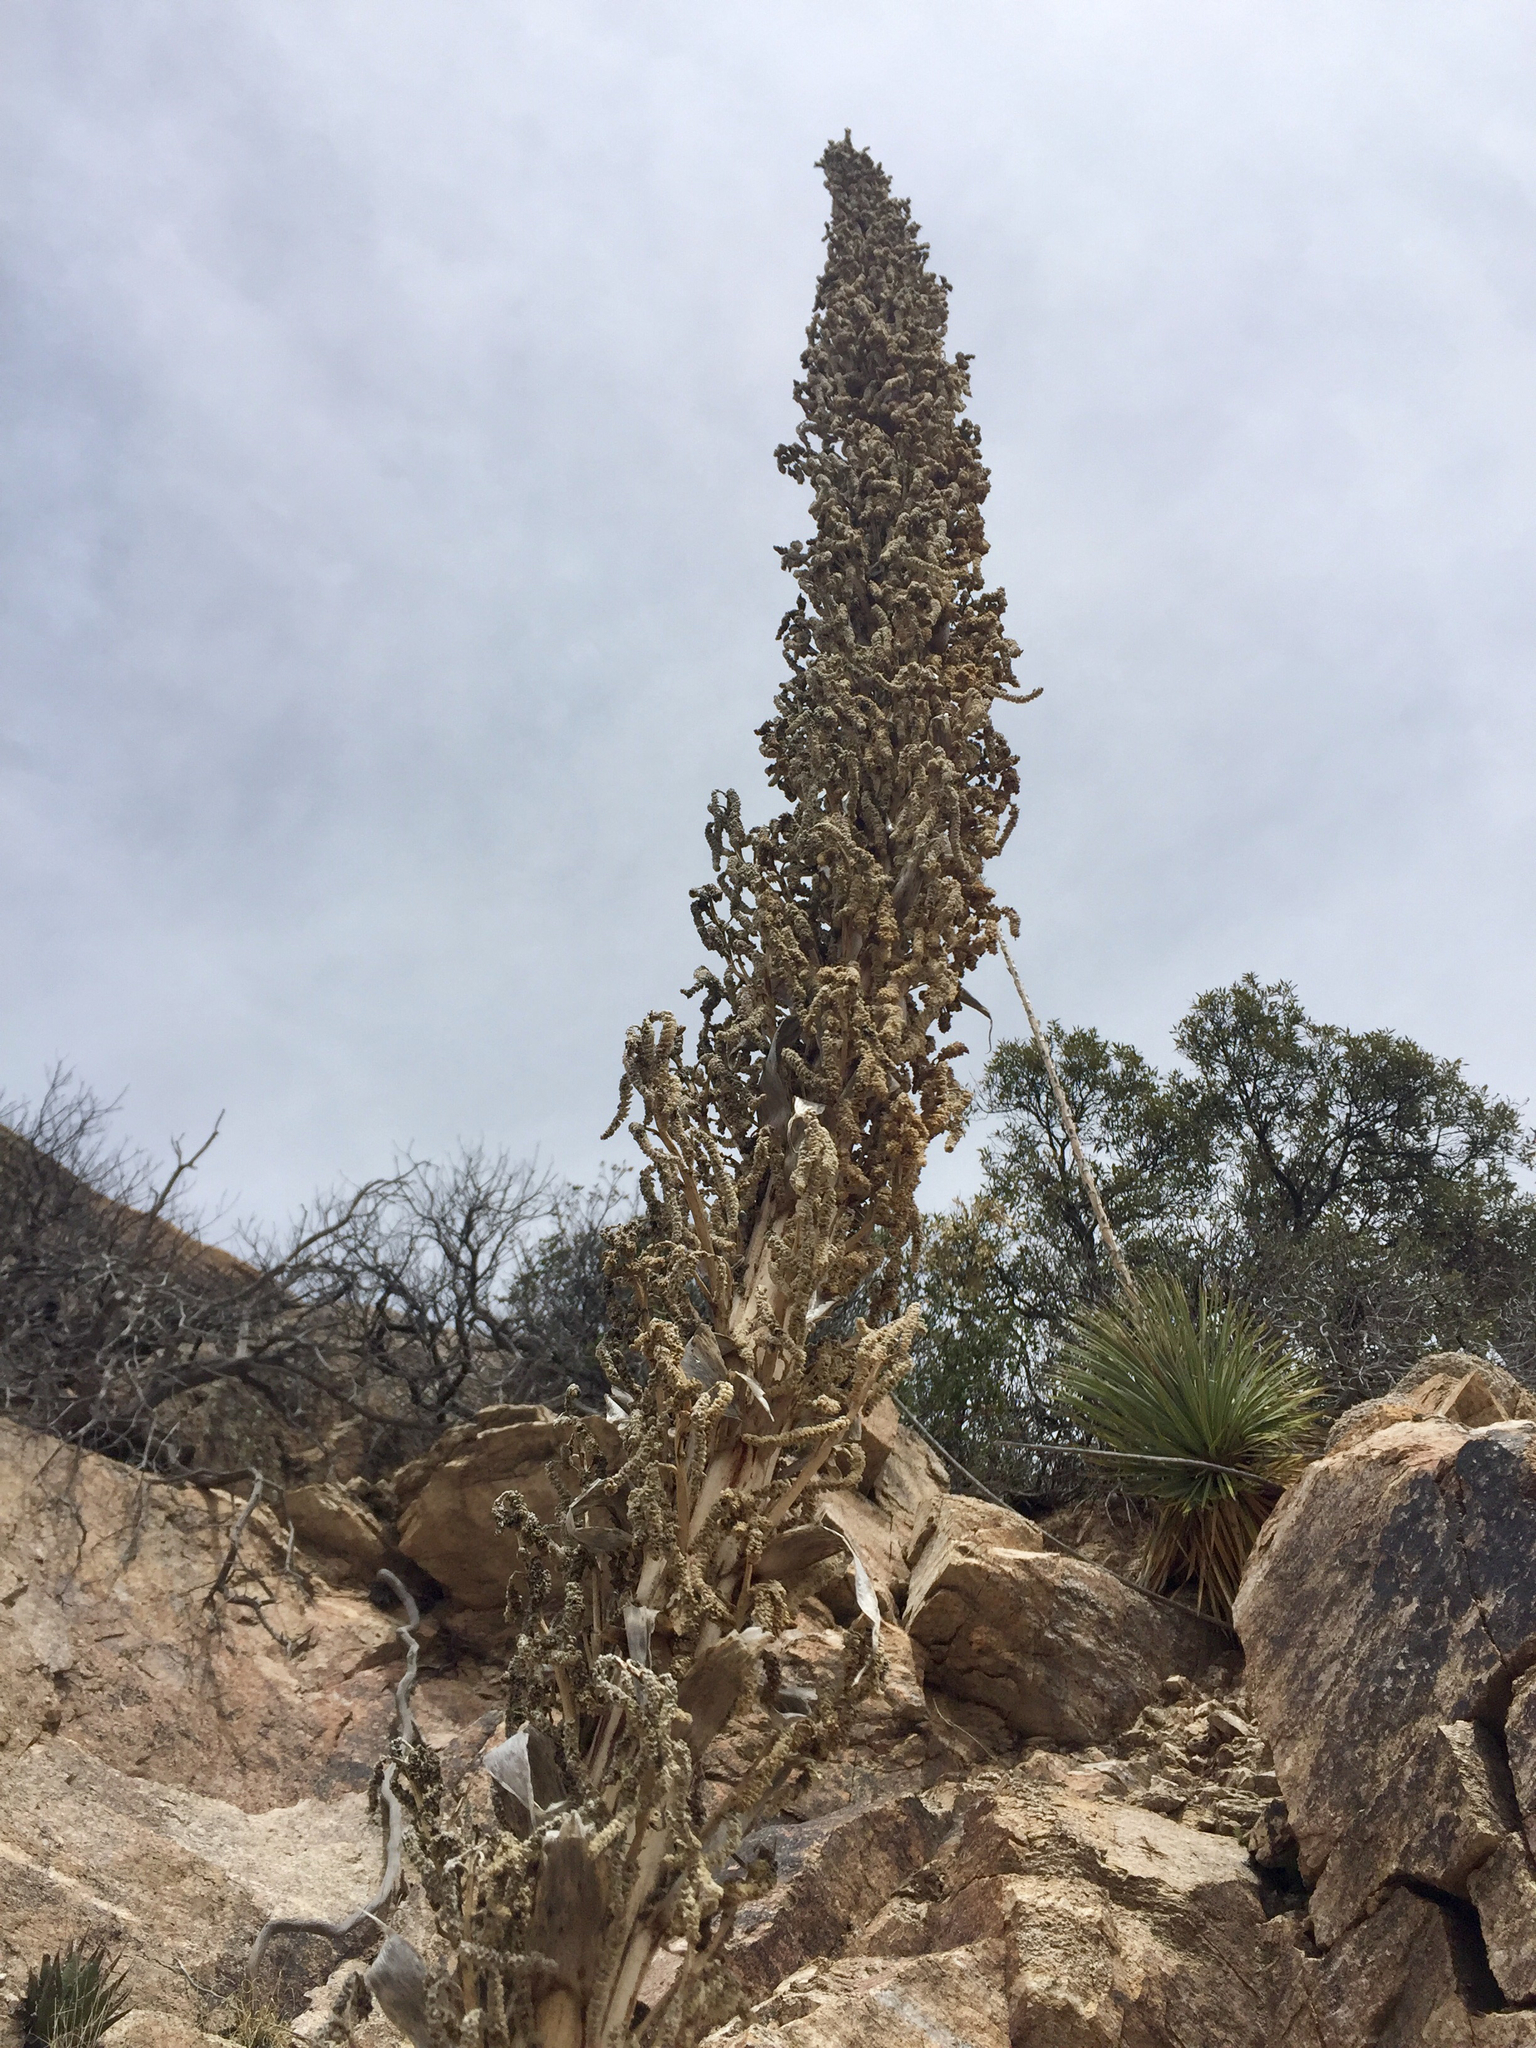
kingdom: Plantae
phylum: Tracheophyta
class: Liliopsida
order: Asparagales
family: Asparagaceae
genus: Dasylirion
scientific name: Dasylirion wheeleri
